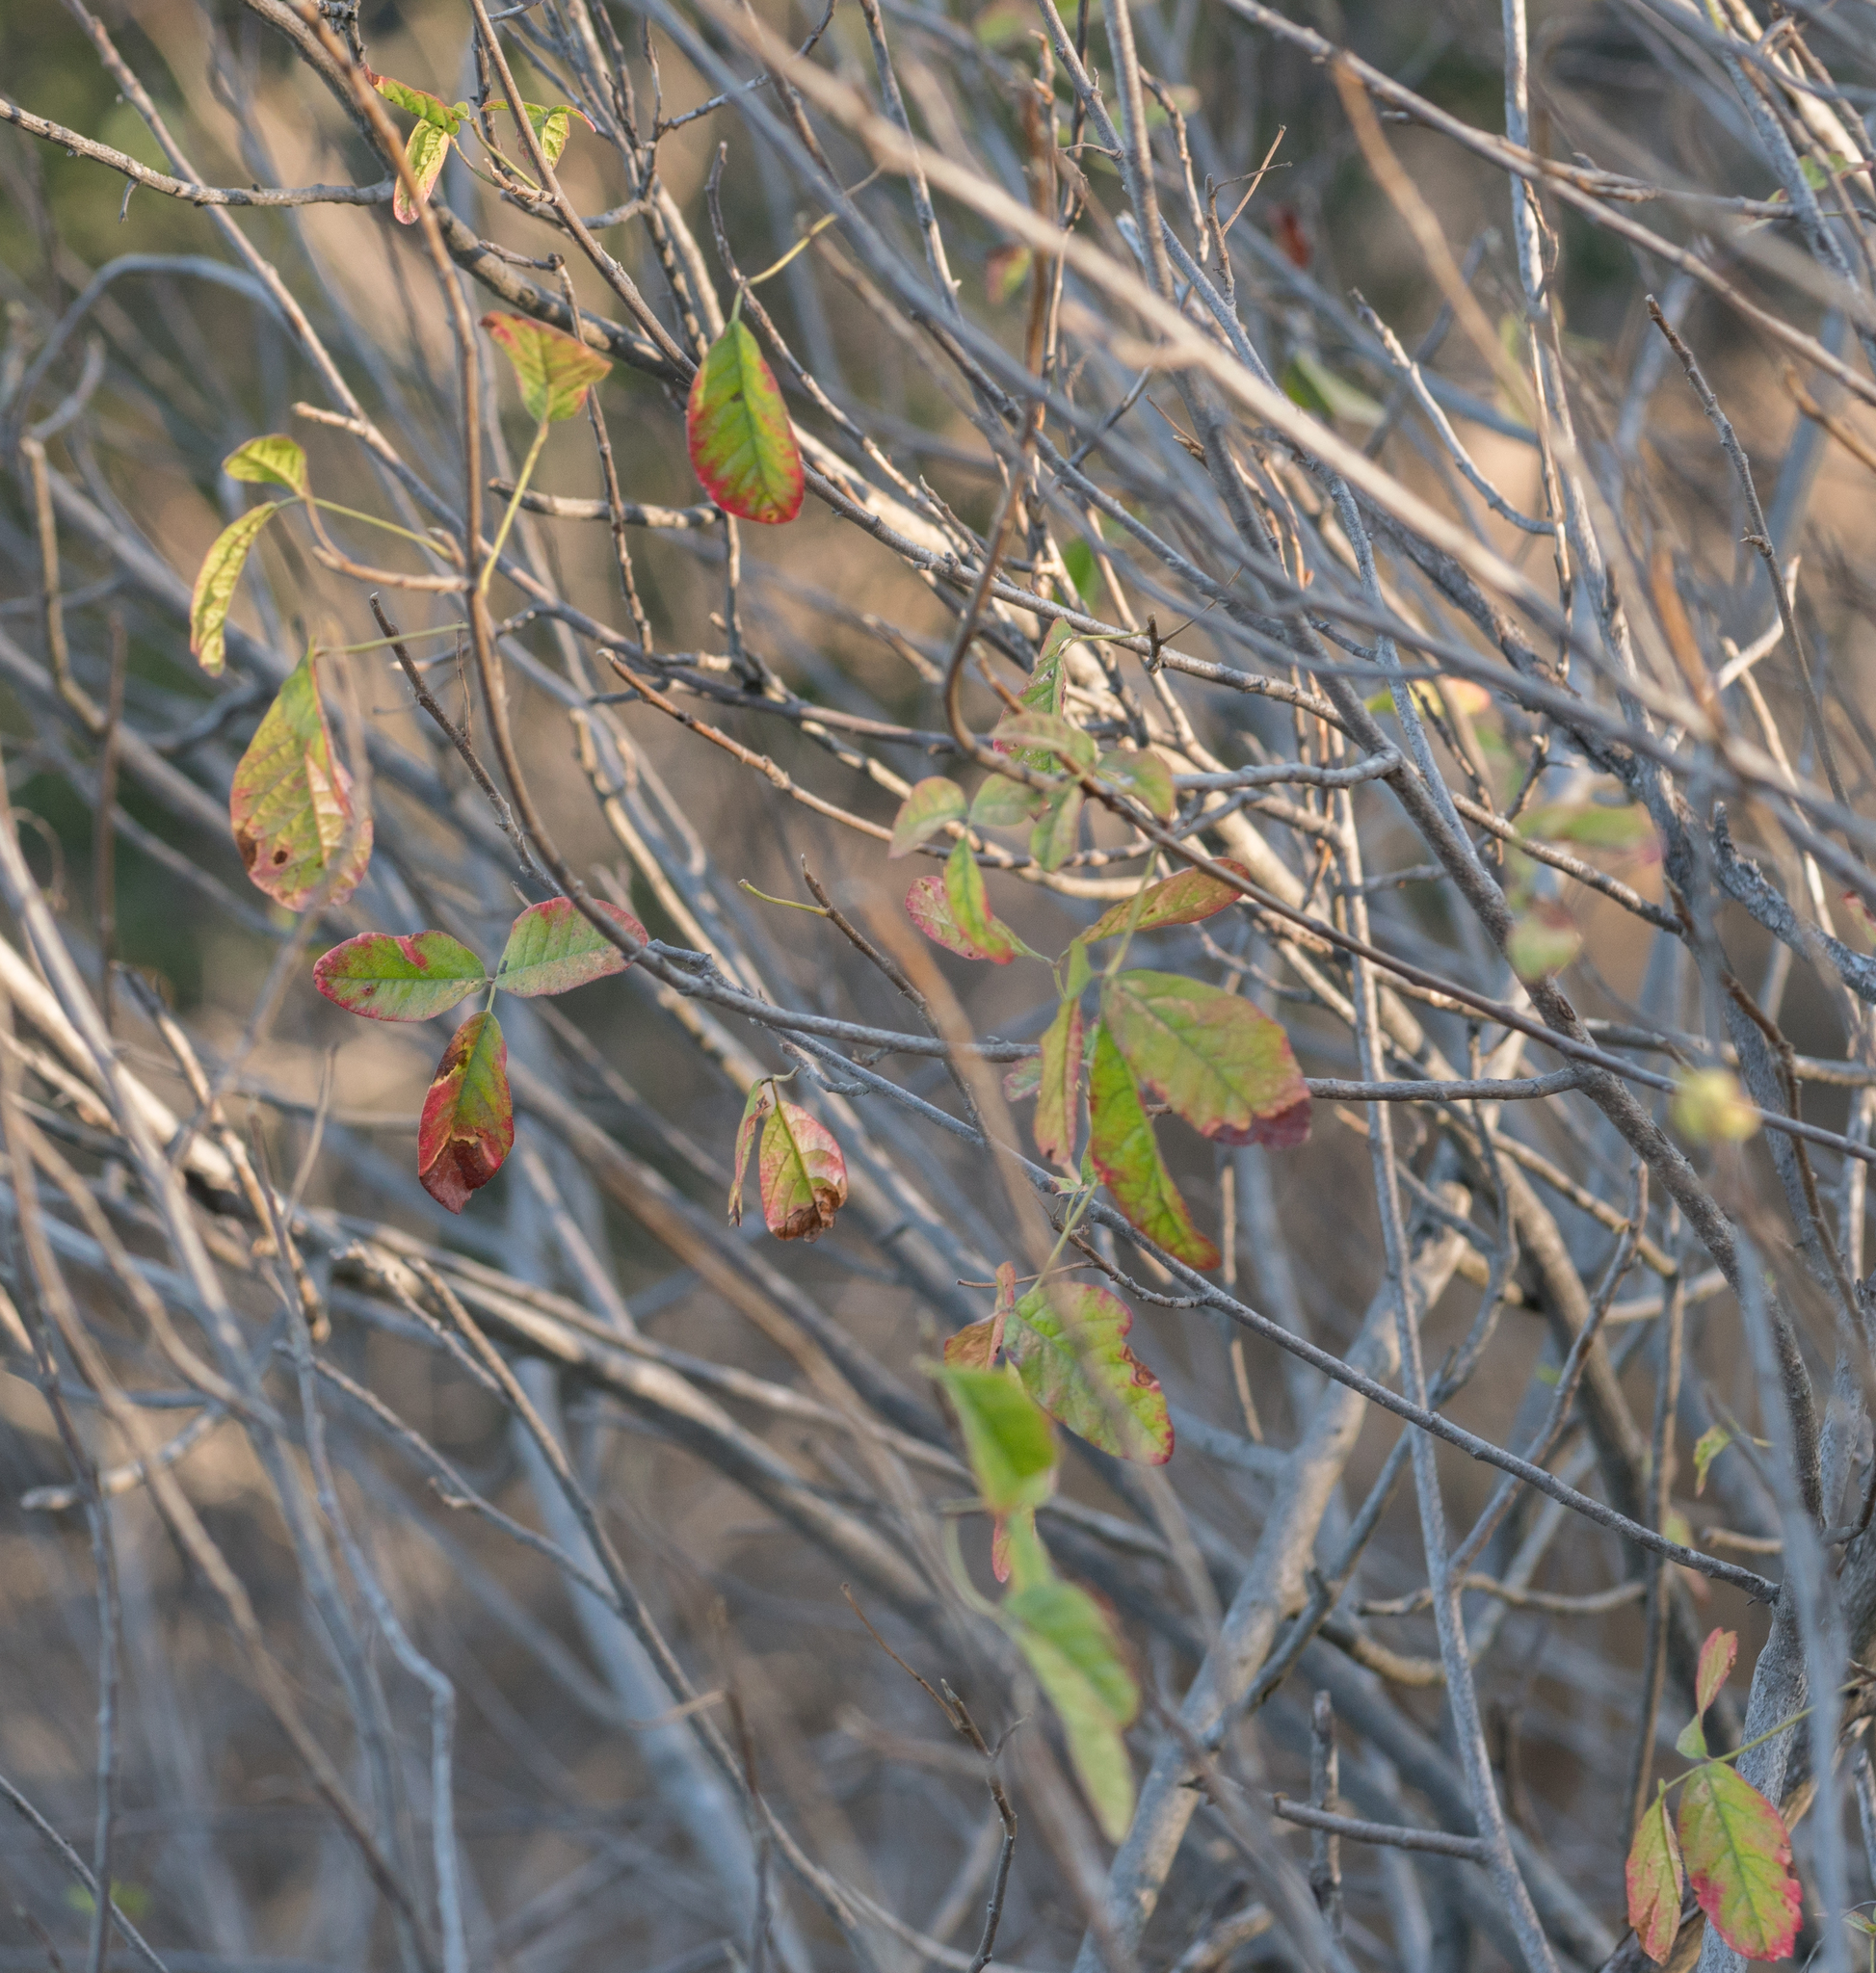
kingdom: Plantae
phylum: Tracheophyta
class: Magnoliopsida
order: Sapindales
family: Anacardiaceae
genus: Toxicodendron
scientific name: Toxicodendron diversilobum
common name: Pacific poison-oak
